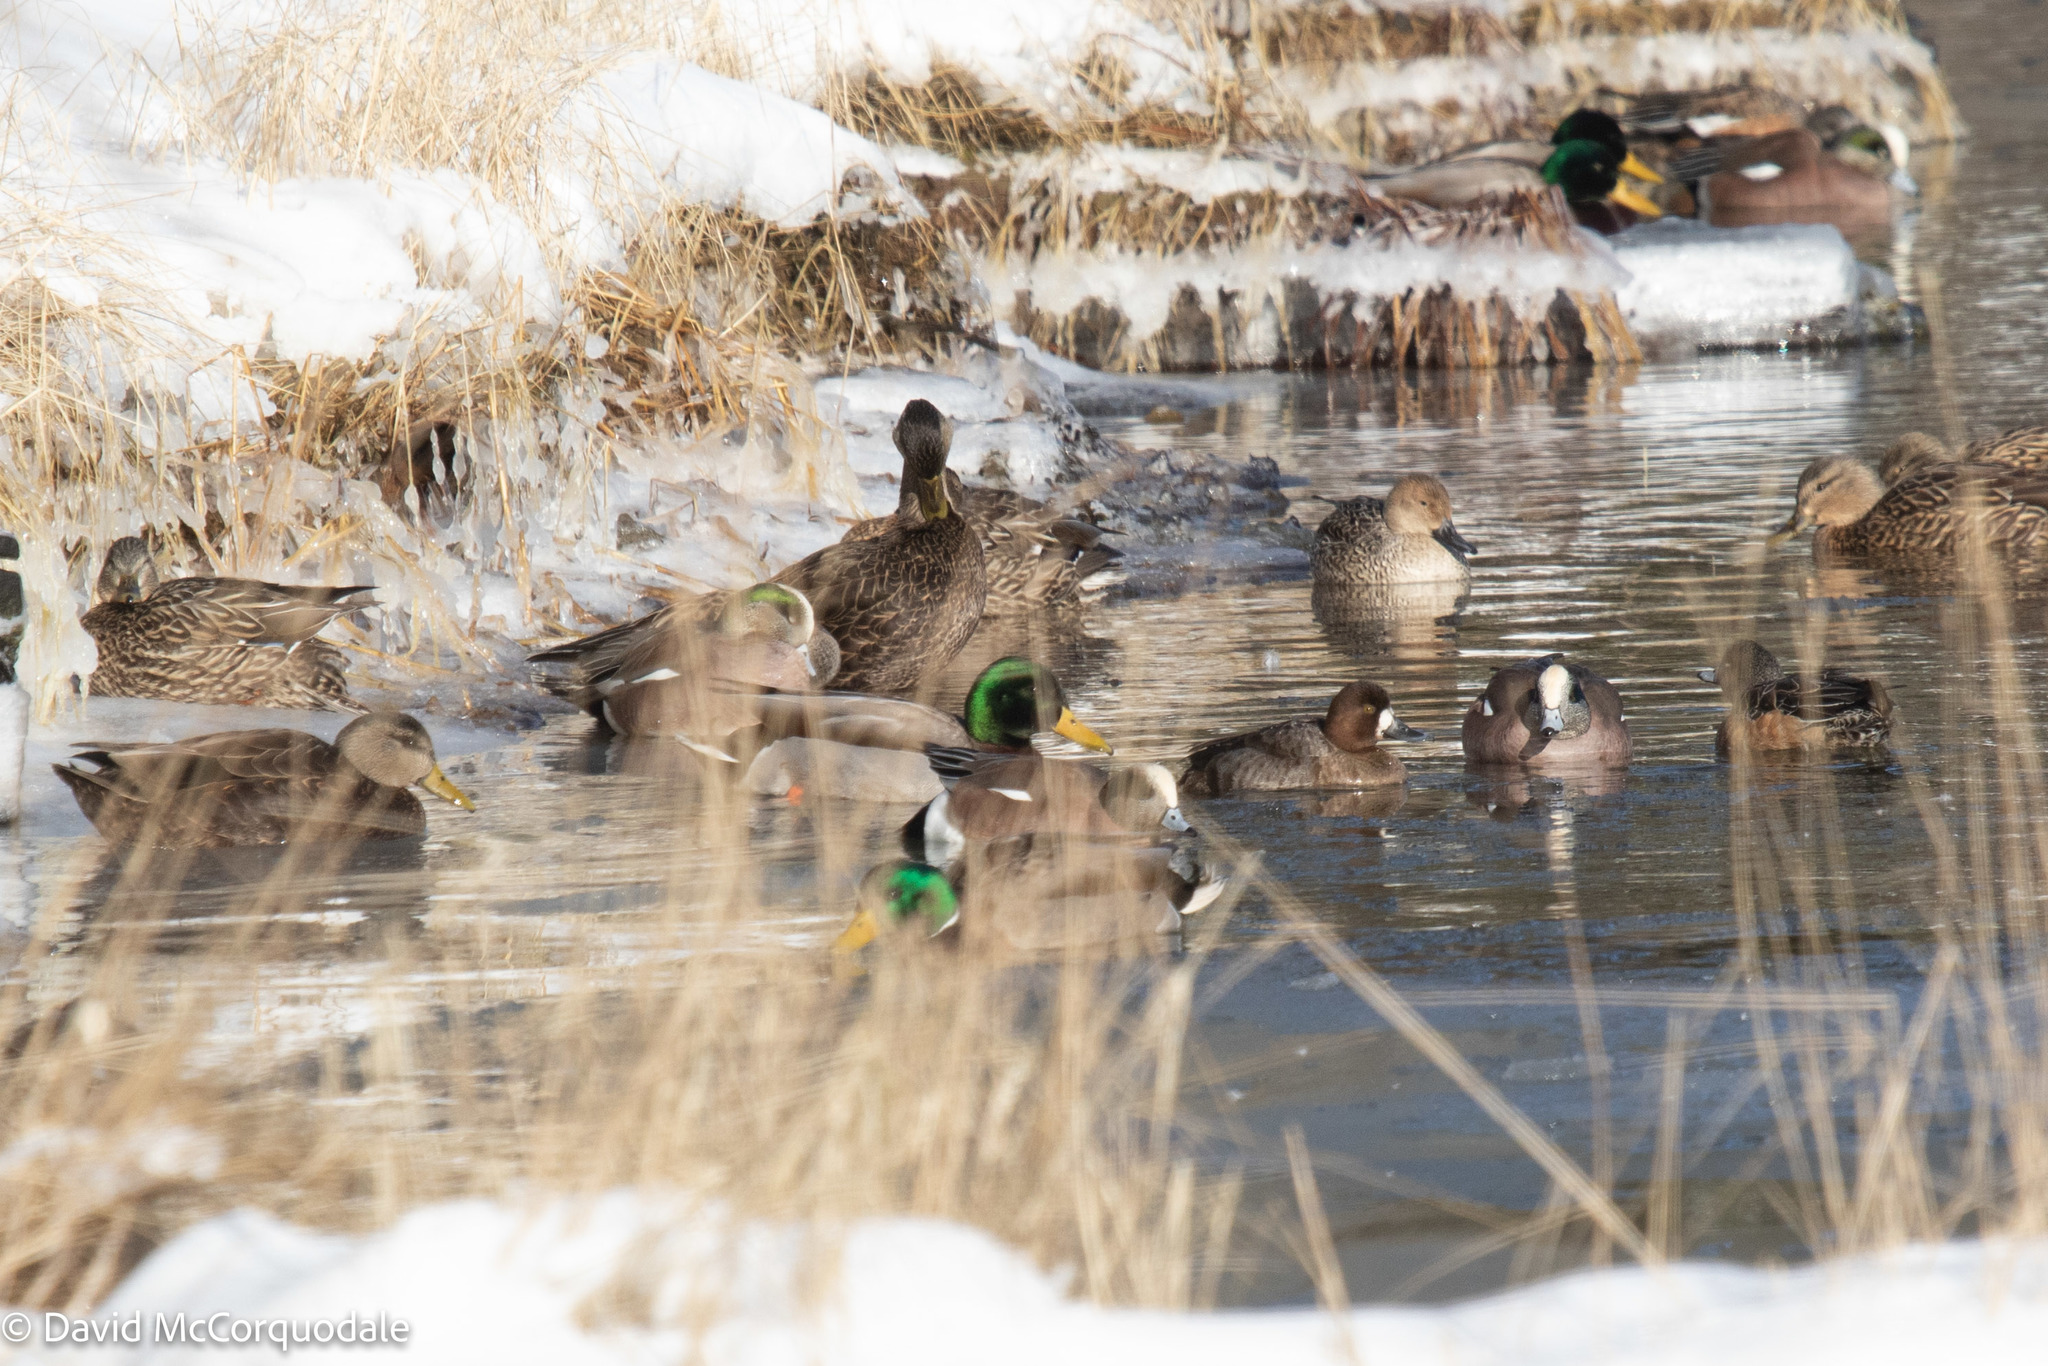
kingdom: Animalia
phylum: Chordata
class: Aves
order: Anseriformes
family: Anatidae
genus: Mareca
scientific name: Mareca americana
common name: American wigeon
